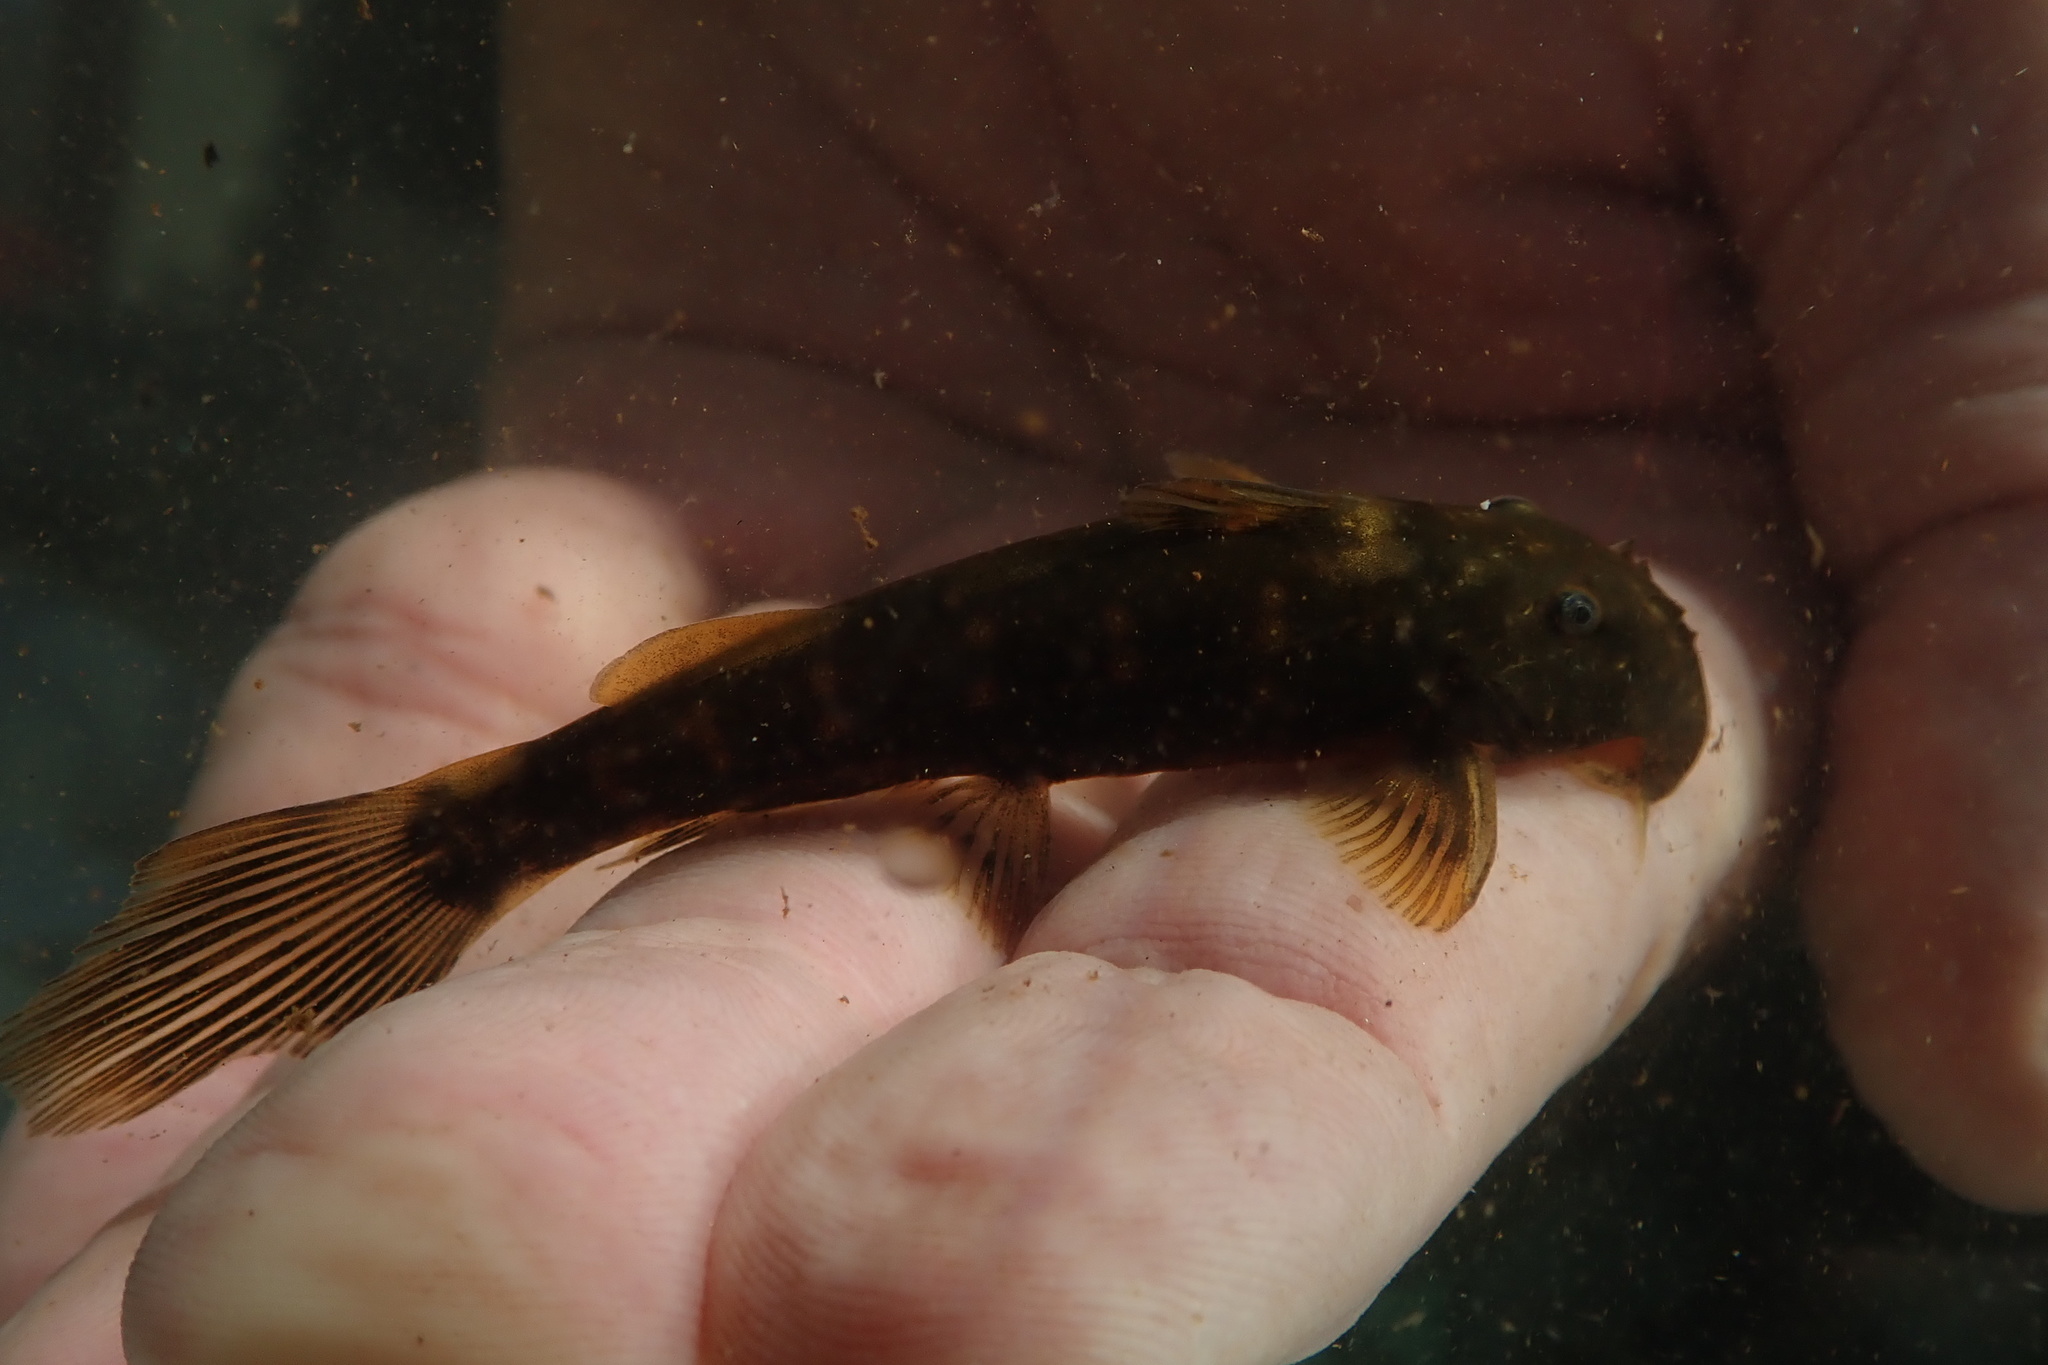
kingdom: Animalia
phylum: Chordata
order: Siluriformes
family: Mochokidae
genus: Chiloglanis
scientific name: Chiloglanis anoterus
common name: Pennant-tailed catlet
